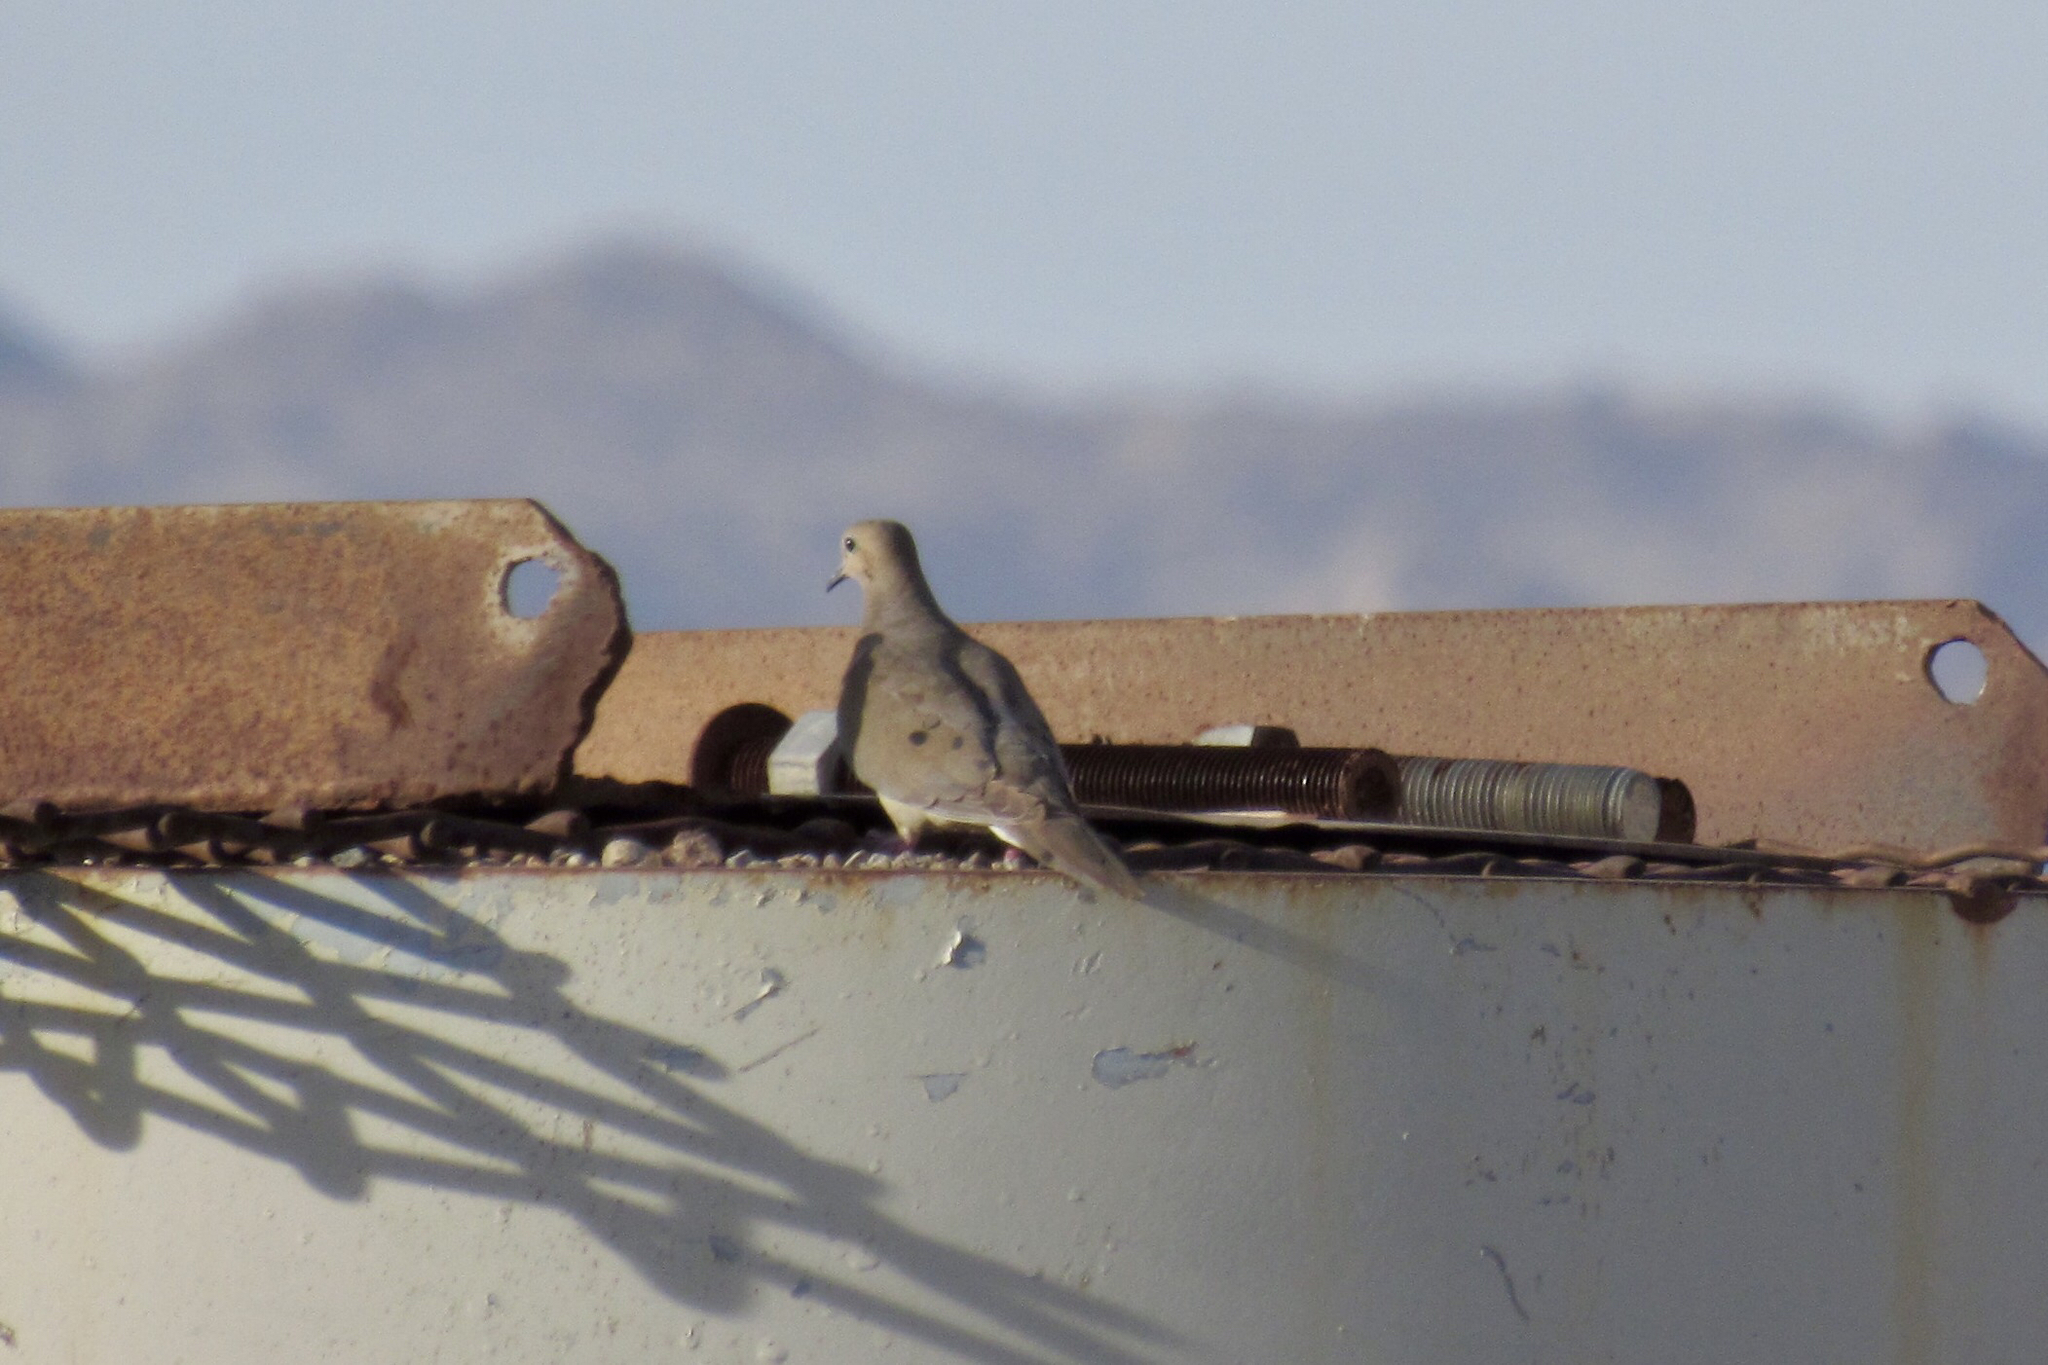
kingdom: Animalia
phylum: Chordata
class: Aves
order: Columbiformes
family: Columbidae
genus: Zenaida
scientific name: Zenaida macroura
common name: Mourning dove
